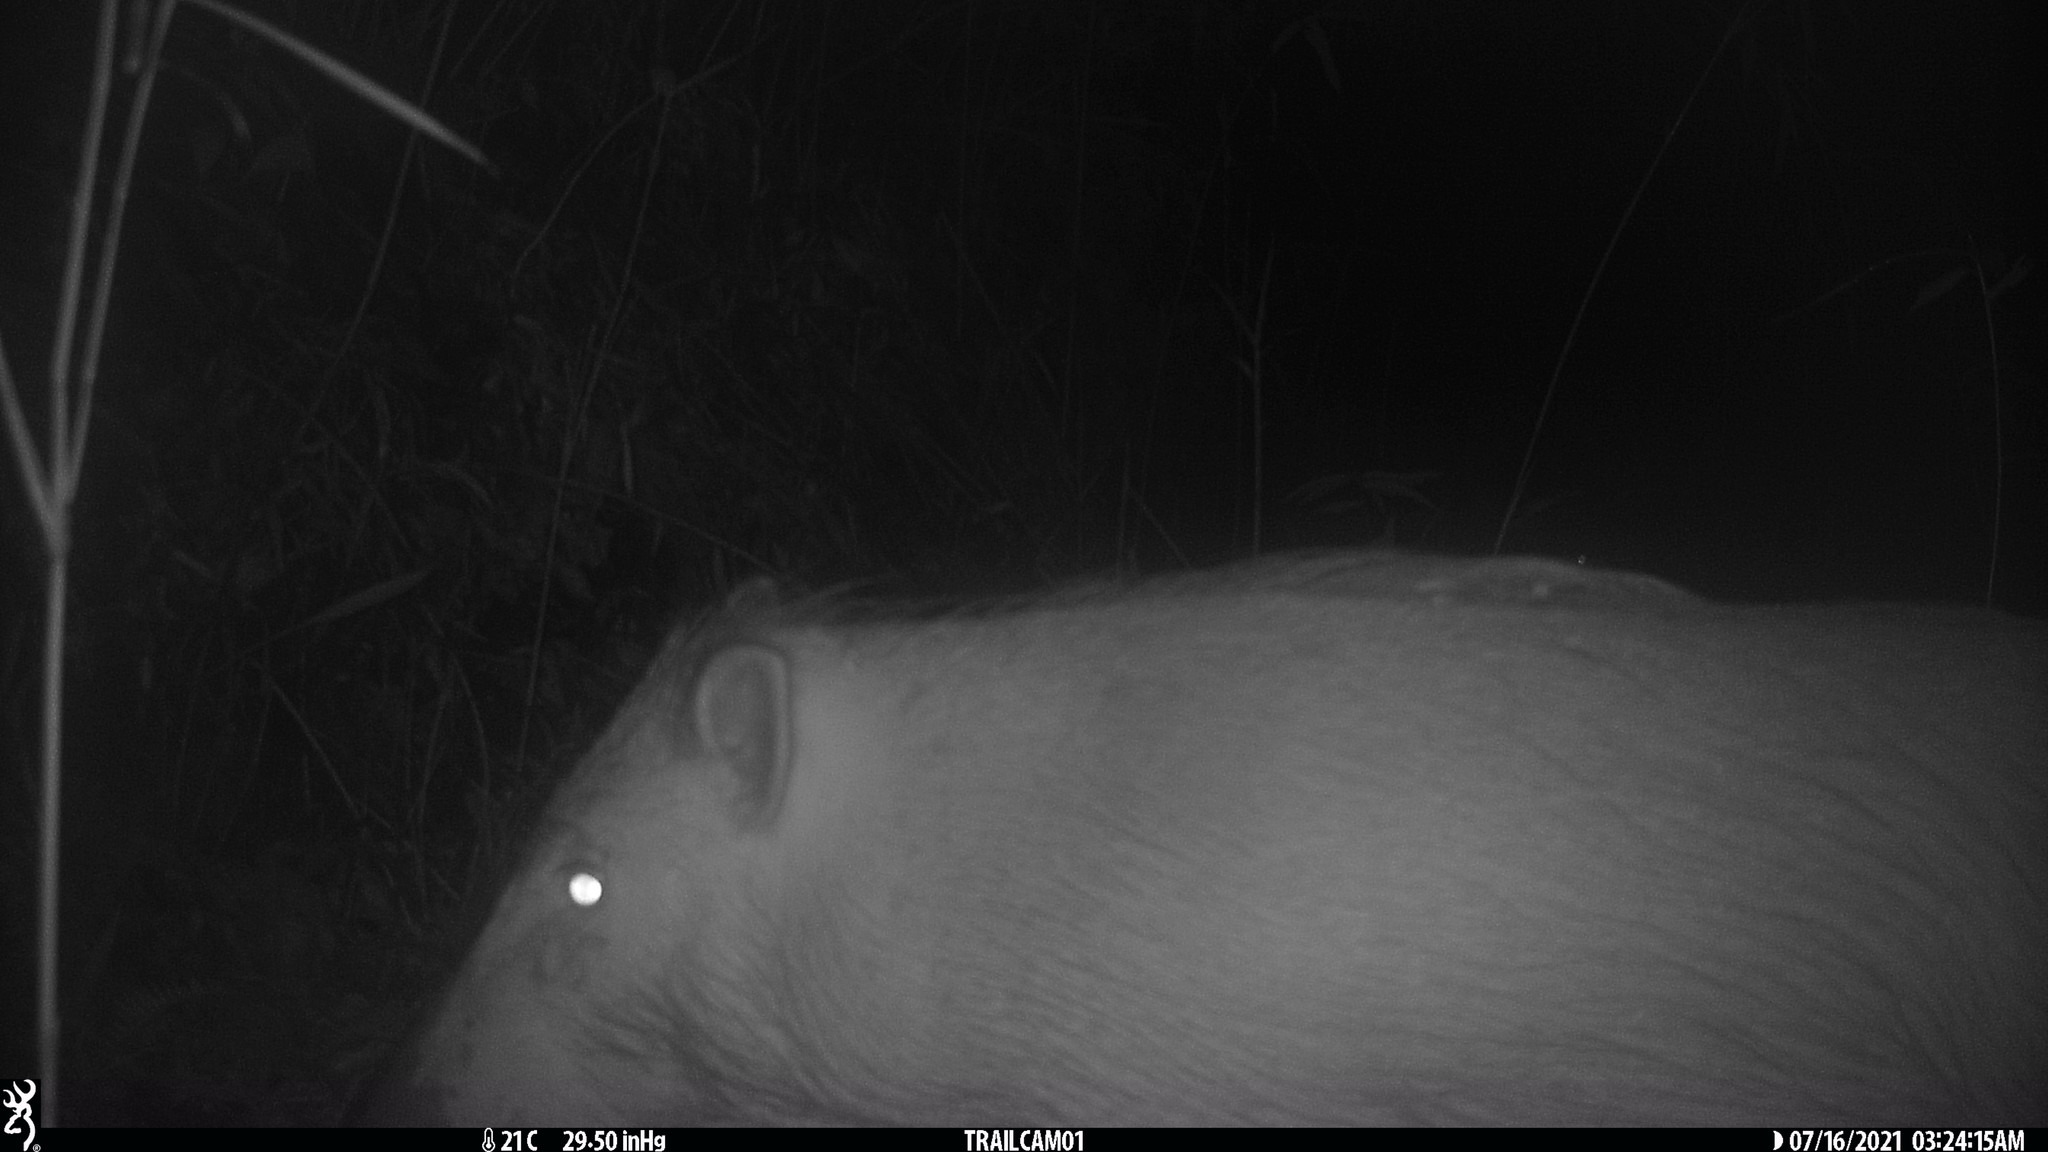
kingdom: Animalia
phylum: Chordata
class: Mammalia
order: Artiodactyla
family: Suidae
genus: Sus
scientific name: Sus scrofa
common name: Wild boar
